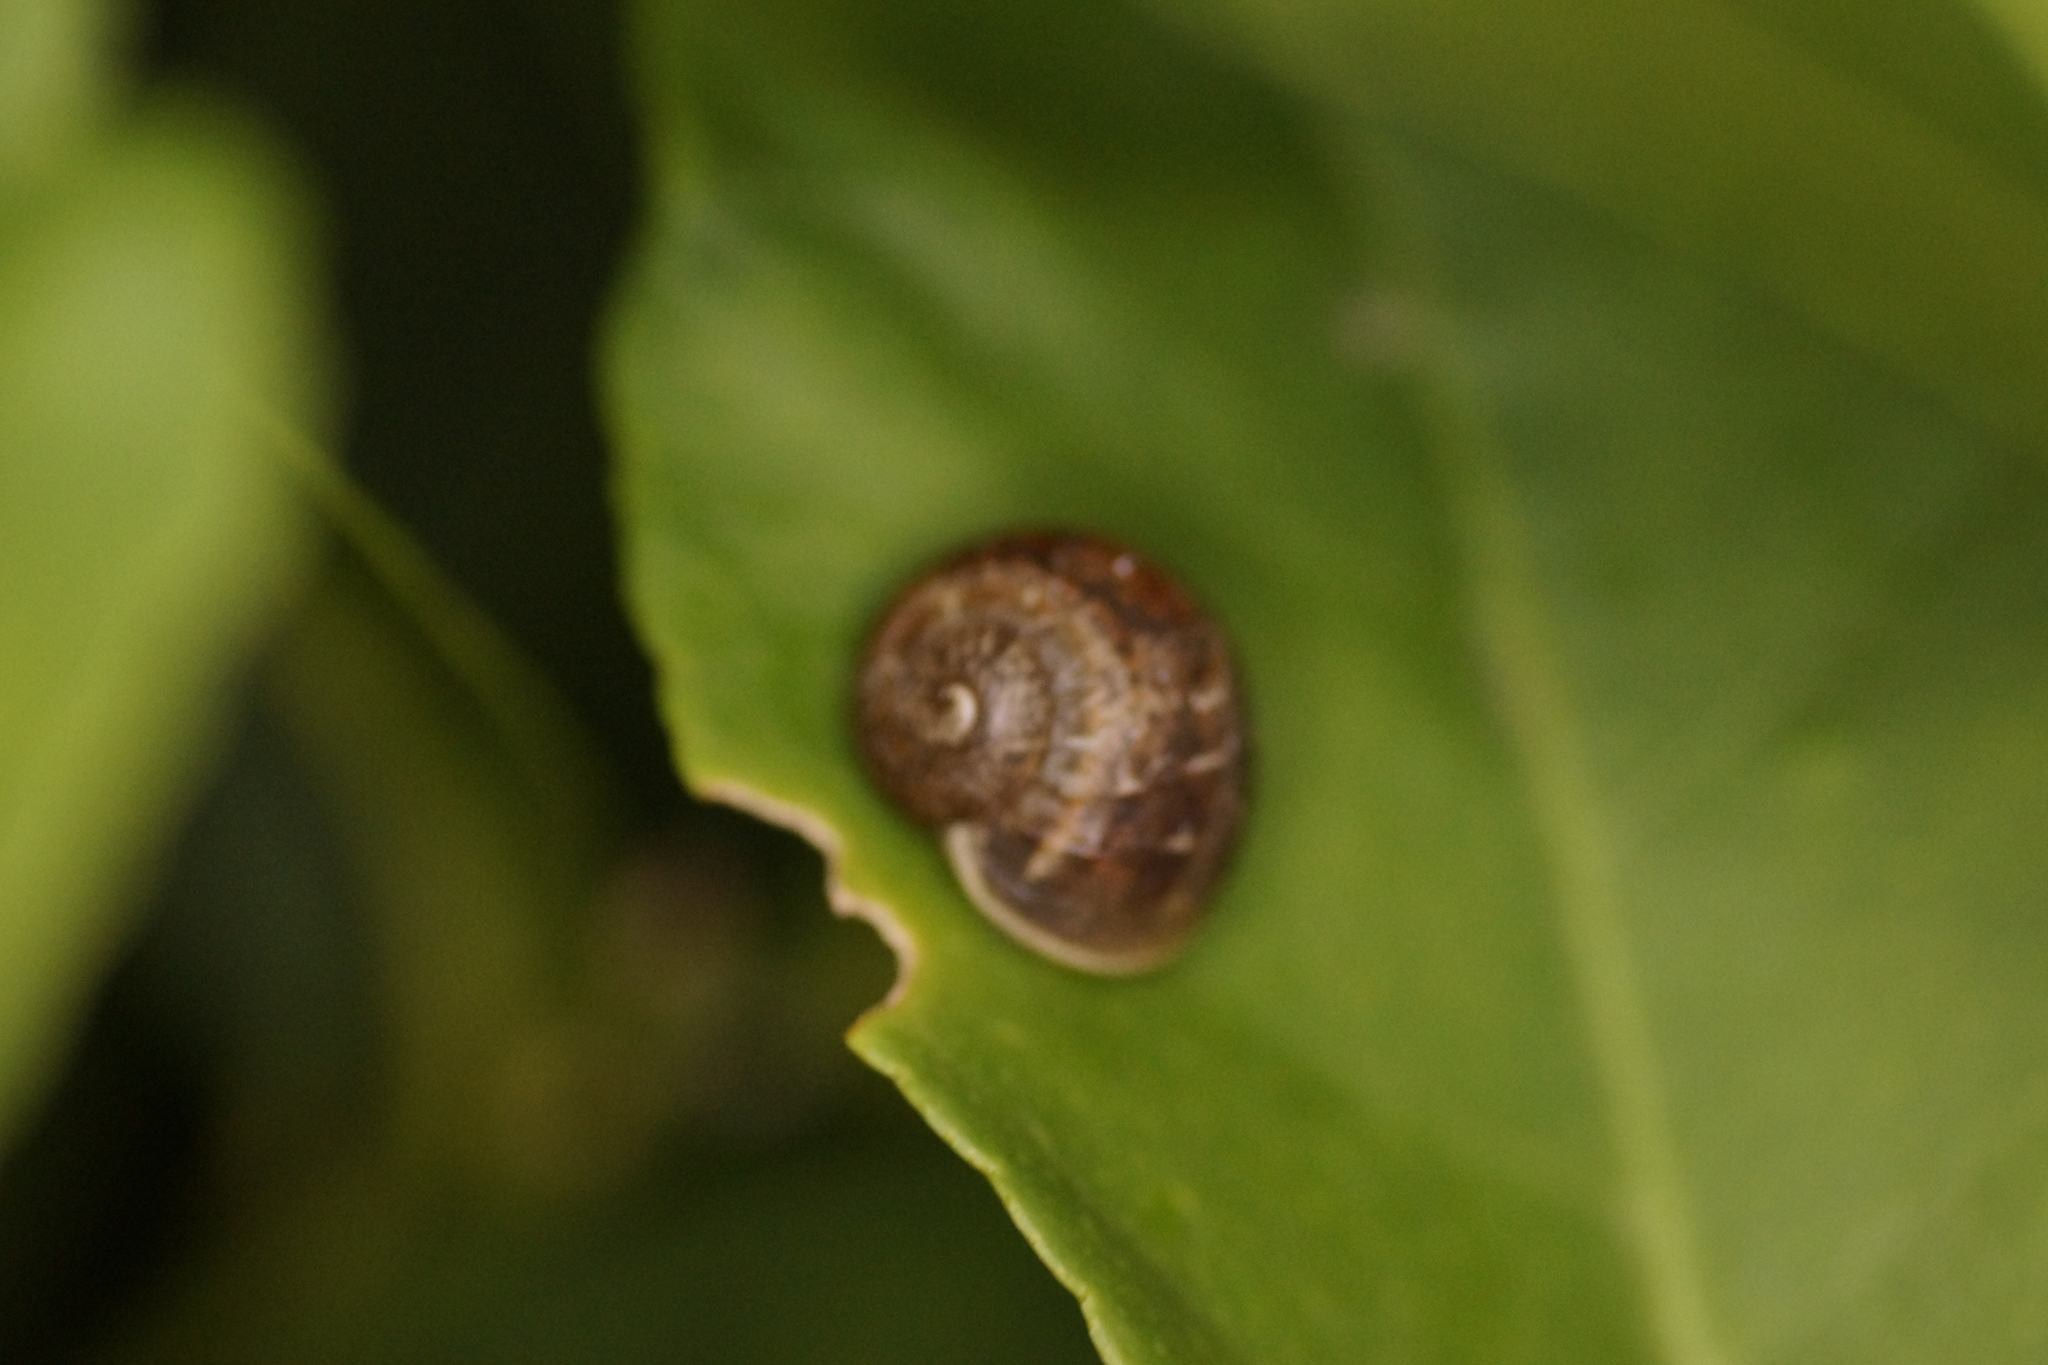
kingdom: Animalia
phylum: Mollusca
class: Gastropoda
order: Stylommatophora
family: Helicidae
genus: Cornu
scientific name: Cornu aspersum
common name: Brown garden snail
